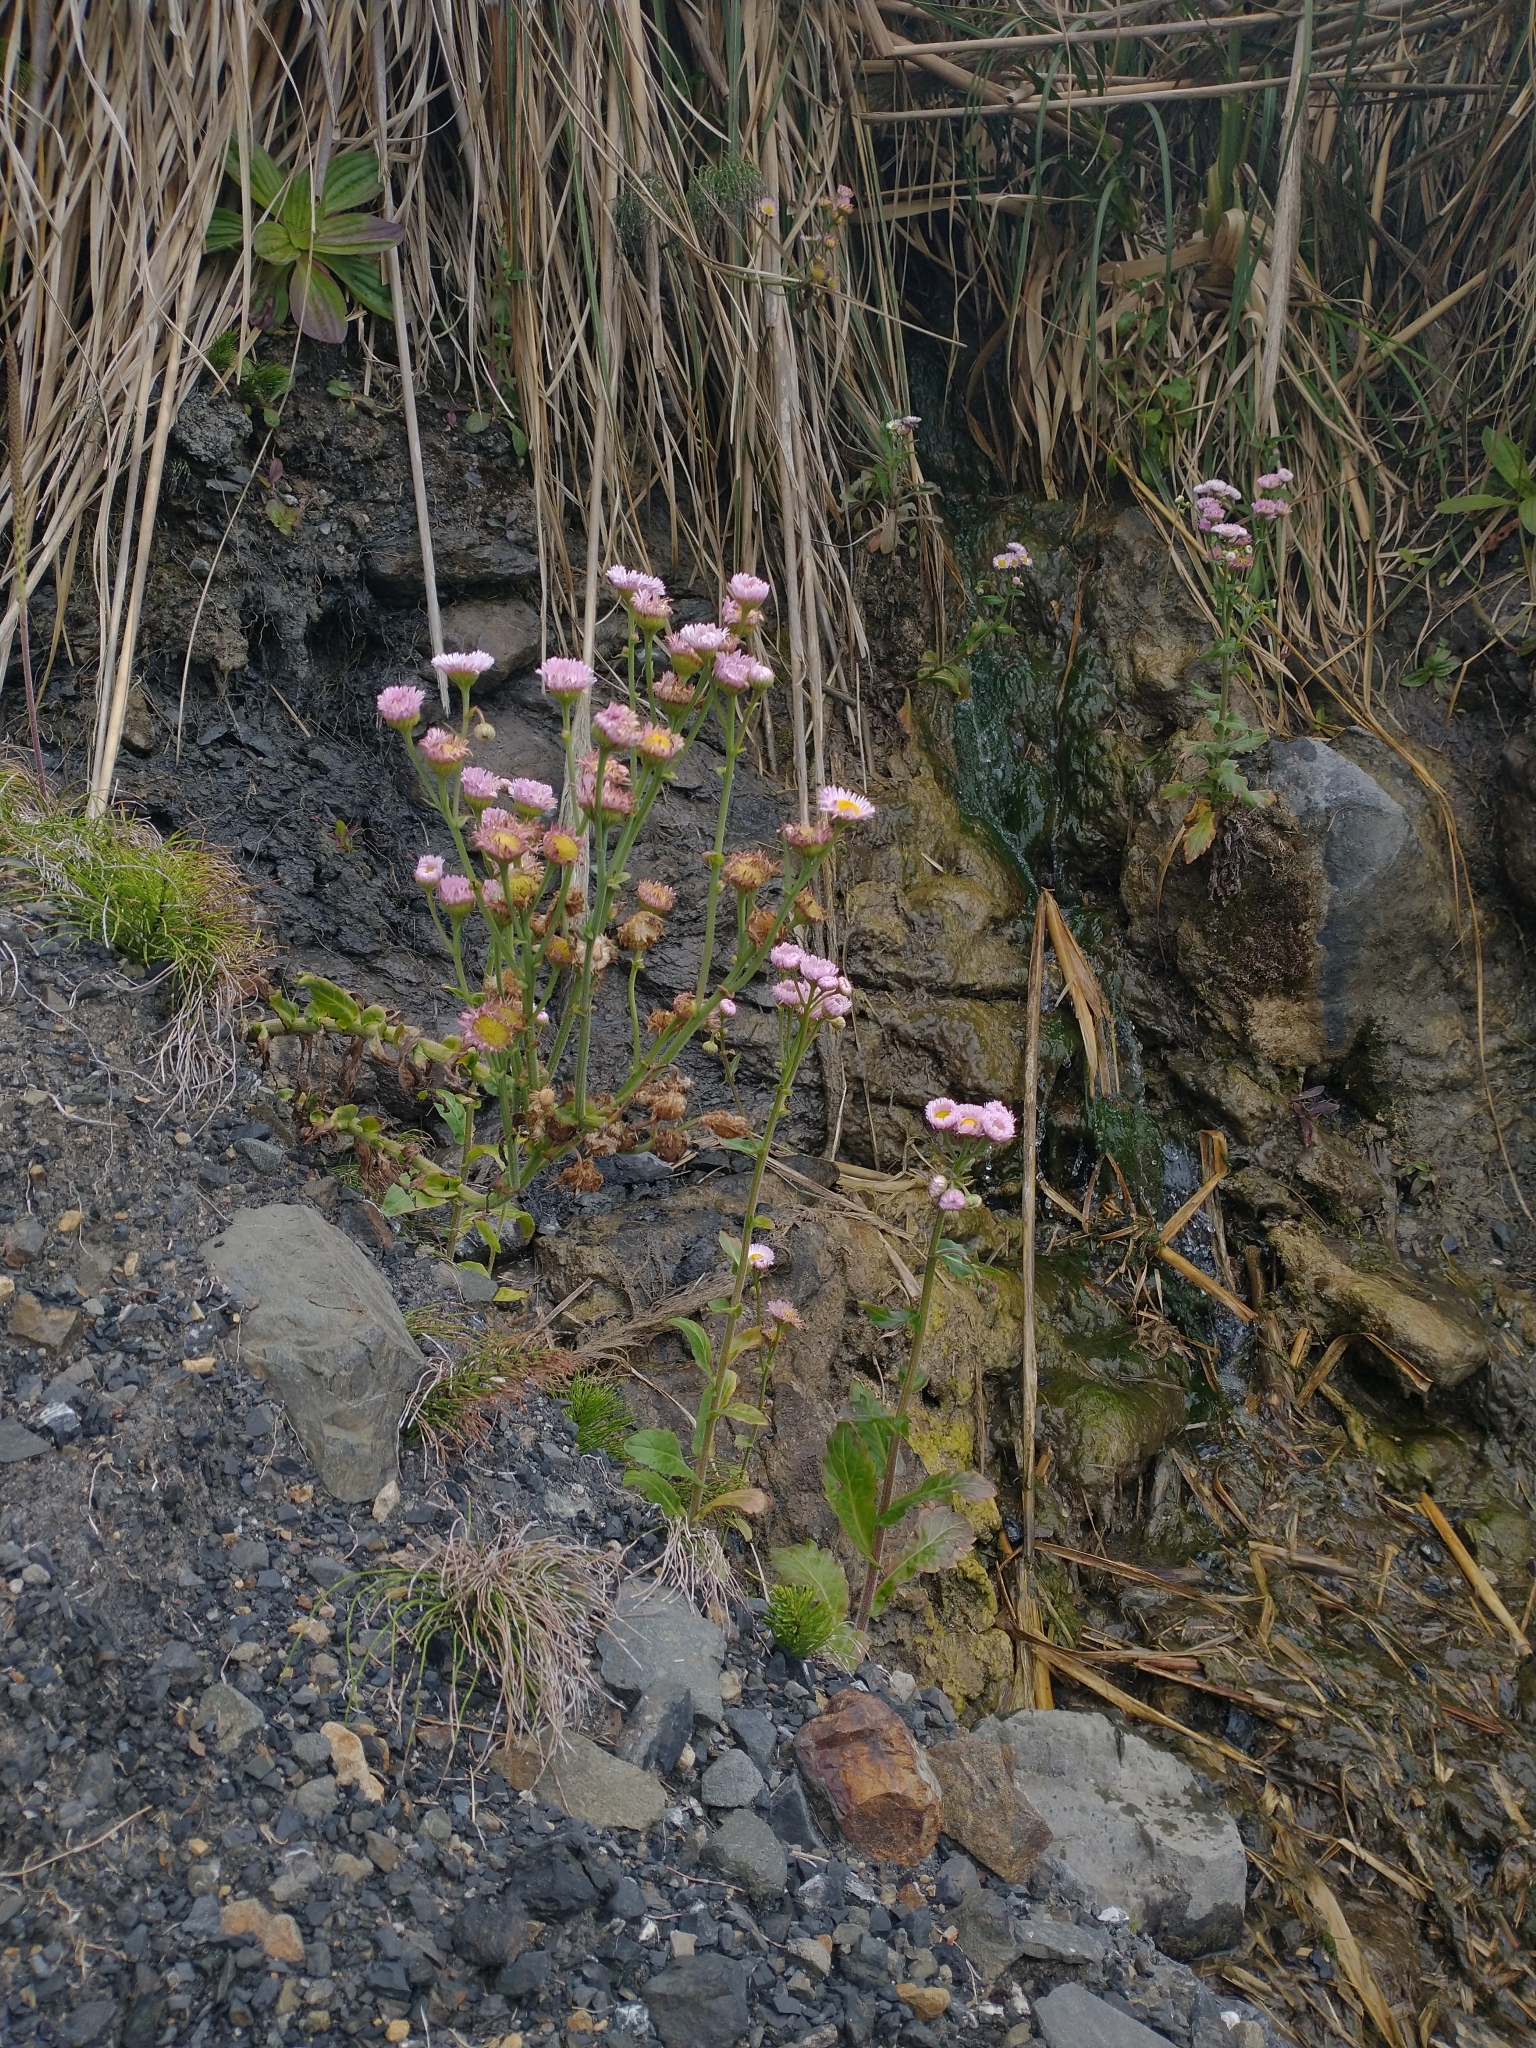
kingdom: Plantae
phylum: Tracheophyta
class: Magnoliopsida
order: Asterales
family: Asteraceae
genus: Erigeron
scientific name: Erigeron philadelphicus
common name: Robin's-plantain
